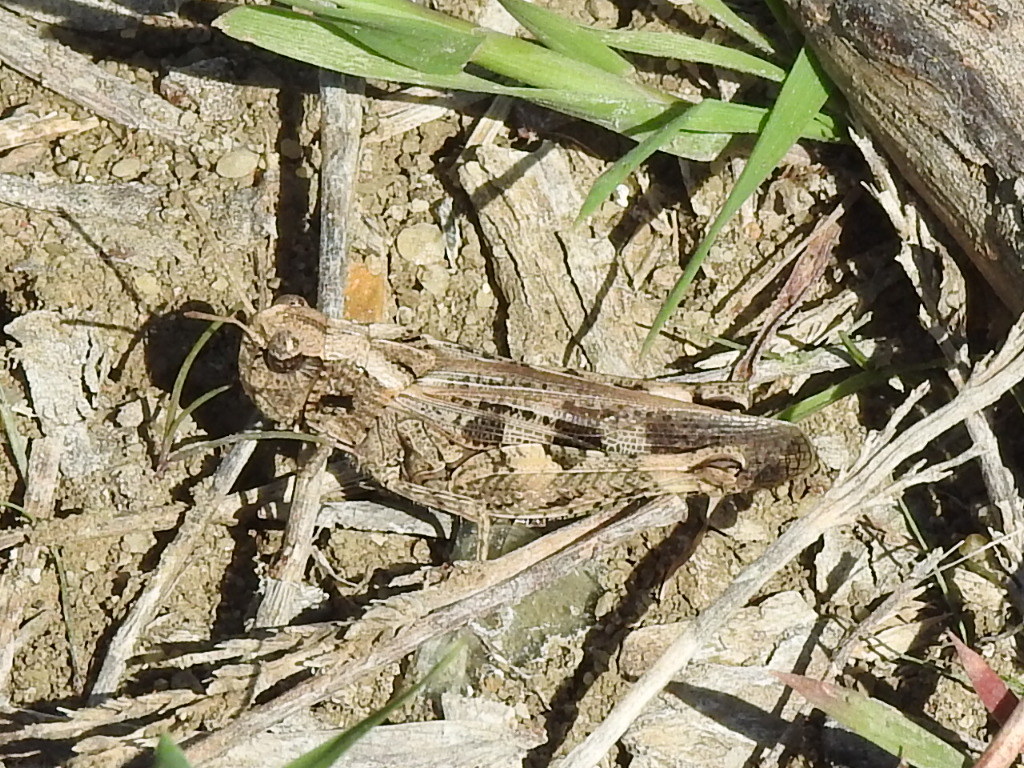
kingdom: Animalia
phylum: Arthropoda
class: Insecta
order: Orthoptera
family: Acrididae
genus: Encoptolophus
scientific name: Encoptolophus costalis
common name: Dusky grasshopper
